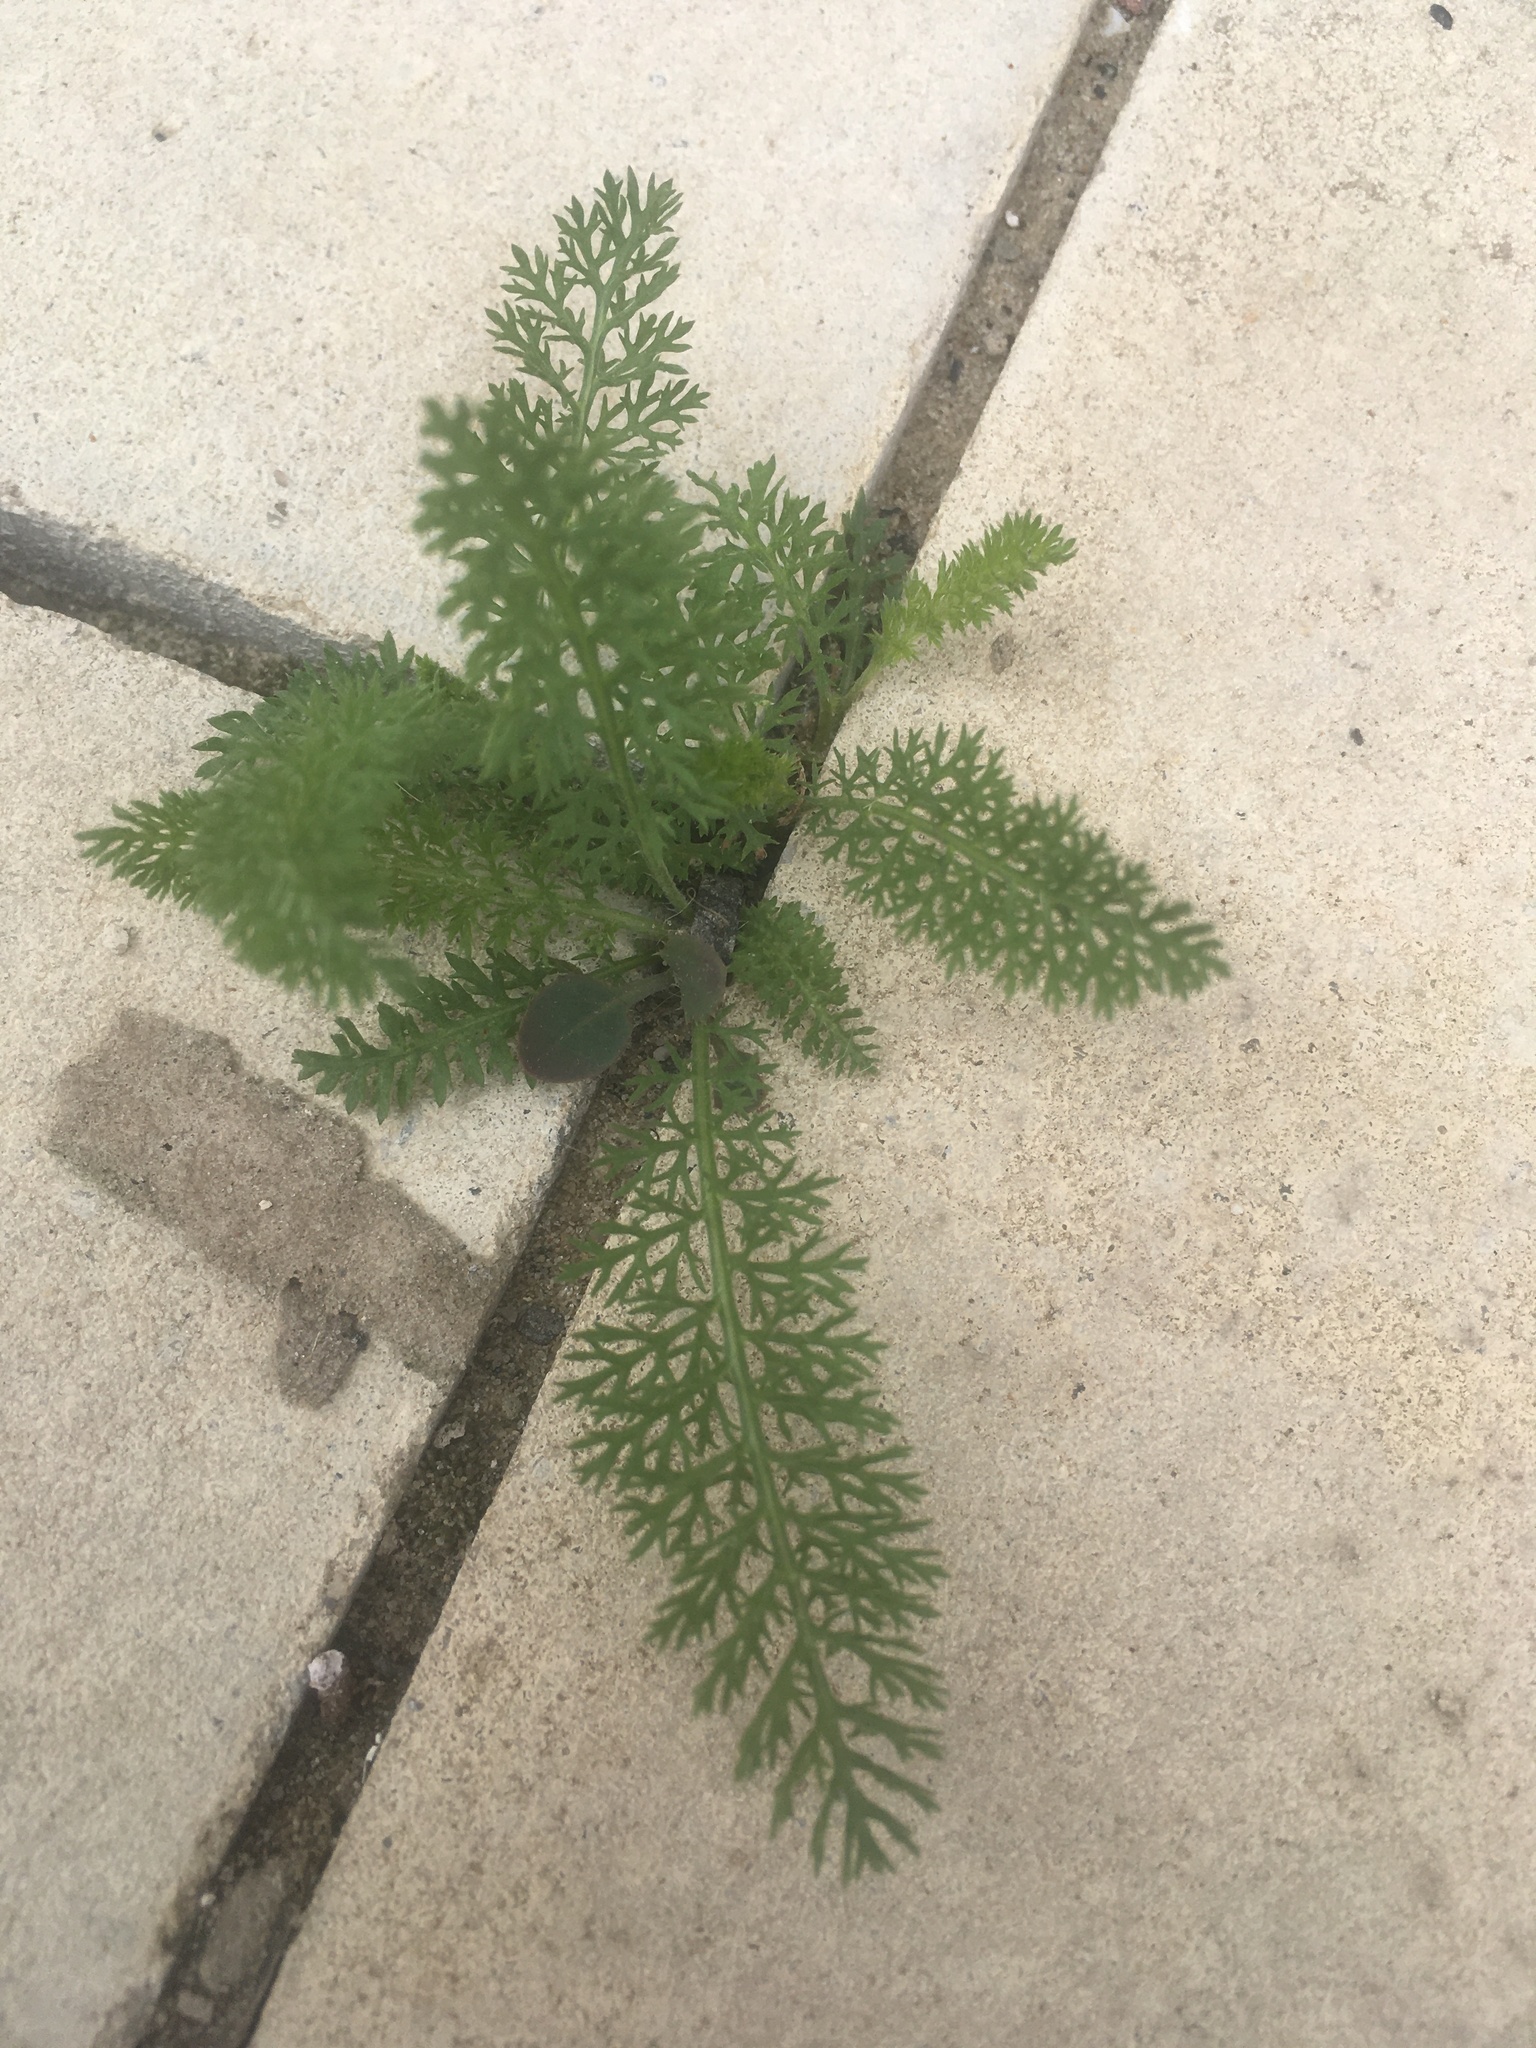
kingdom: Plantae
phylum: Tracheophyta
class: Magnoliopsida
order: Asterales
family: Asteraceae
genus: Achillea
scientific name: Achillea millefolium
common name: Yarrow
